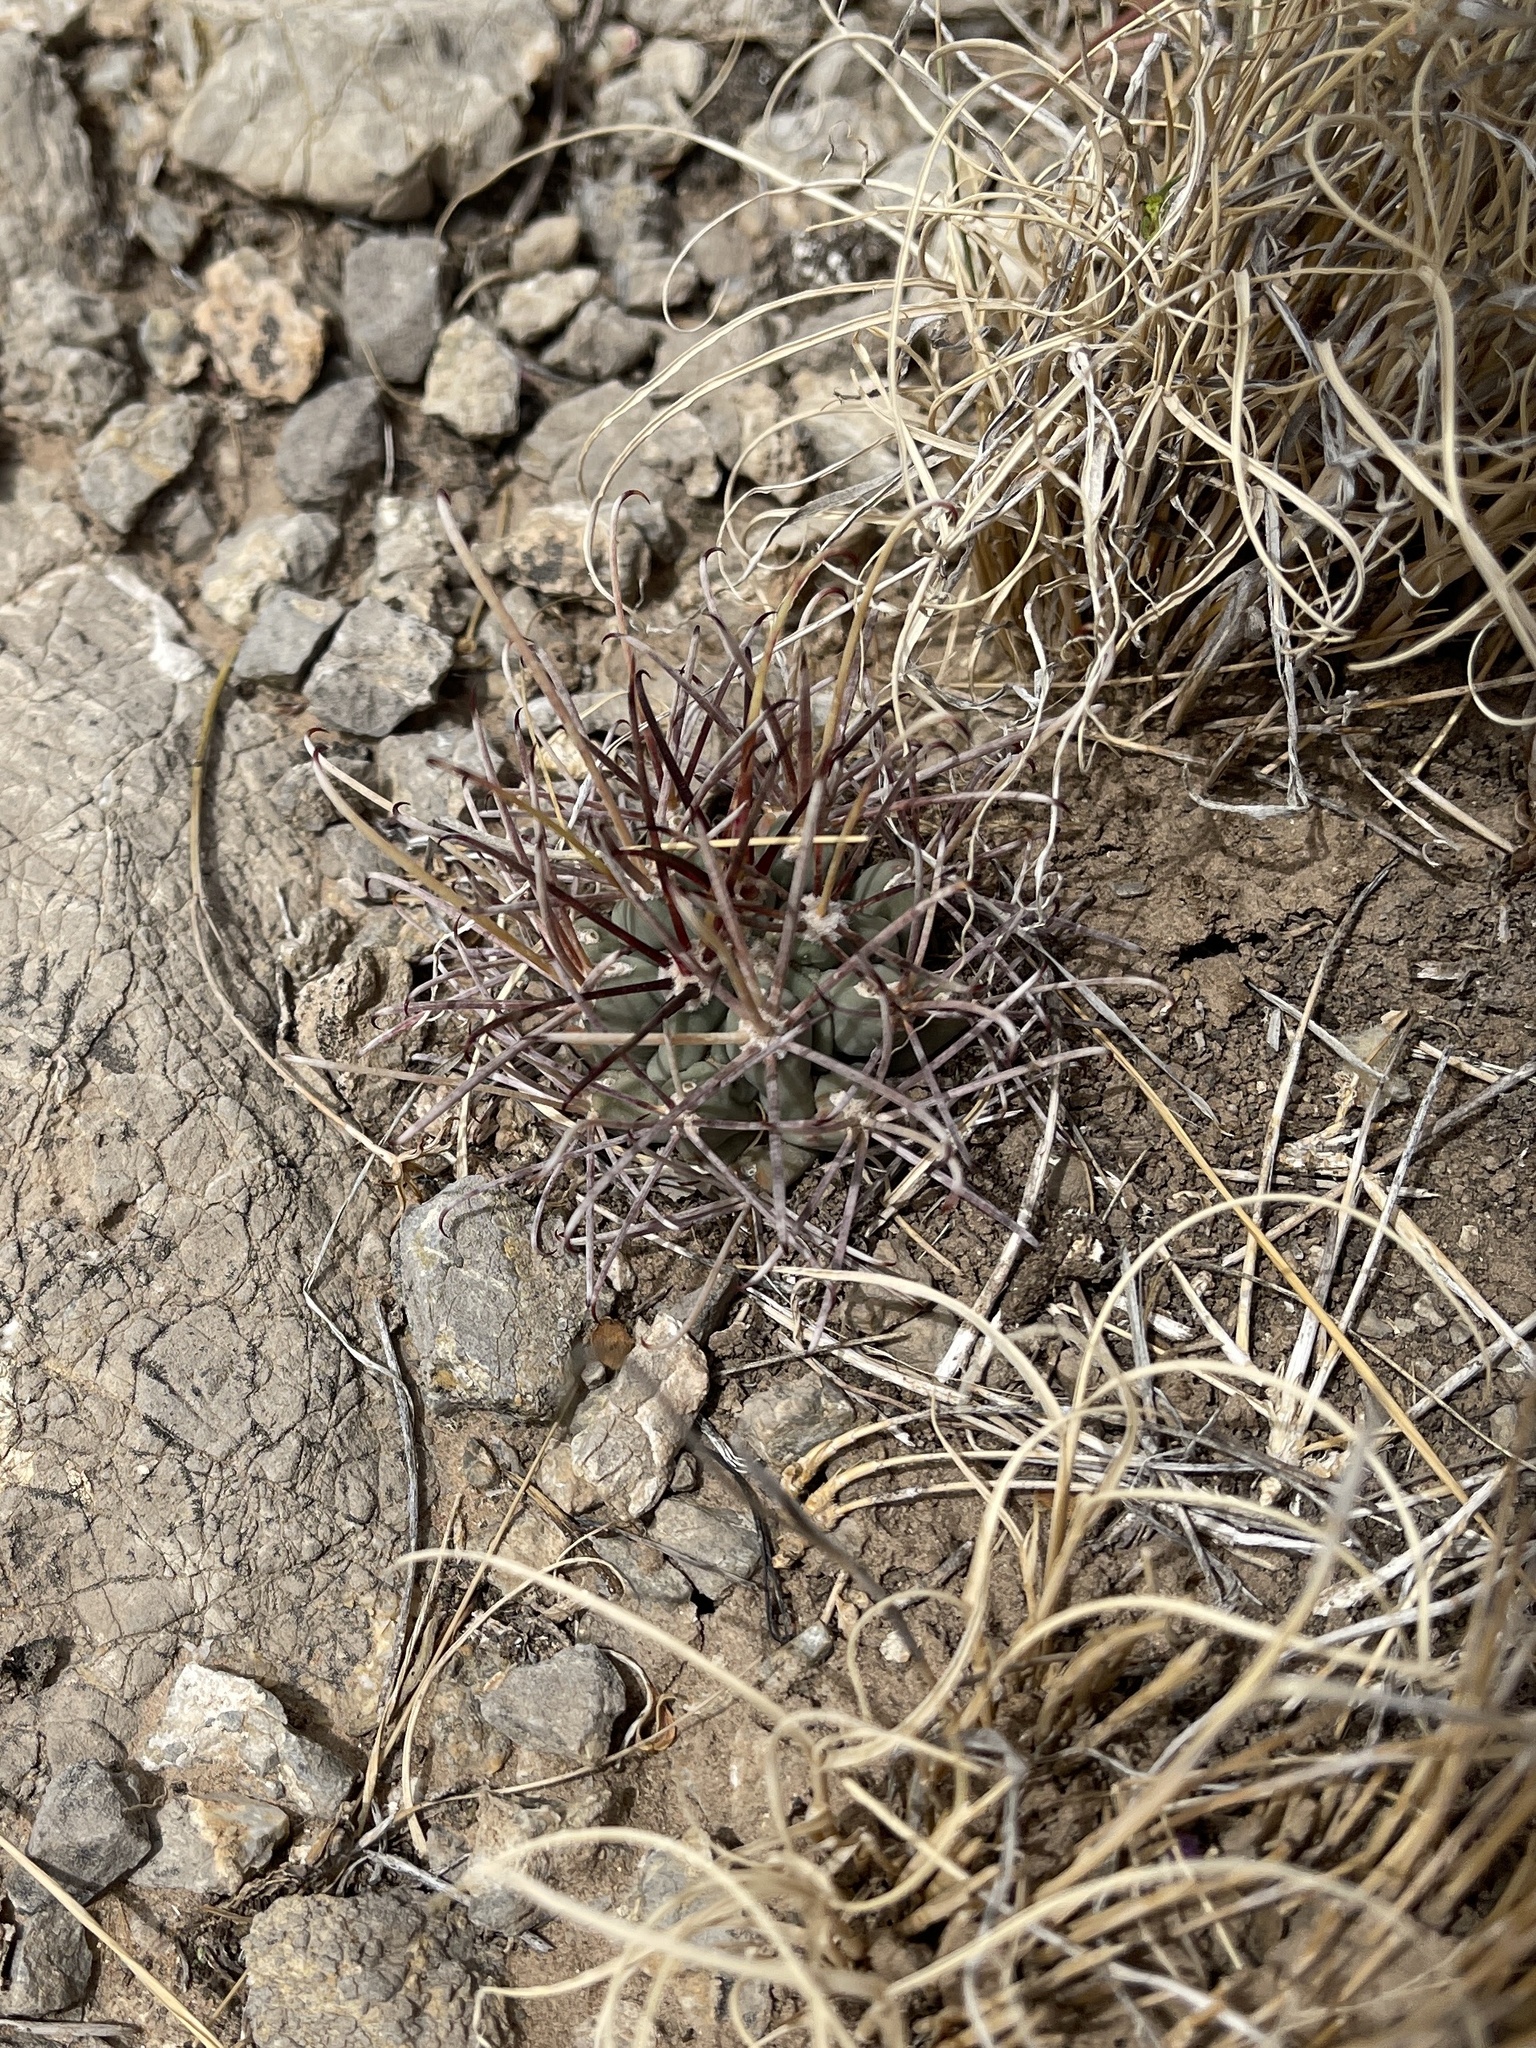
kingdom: Plantae
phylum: Tracheophyta
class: Magnoliopsida
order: Caryophyllales
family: Cactaceae
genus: Ferocactus
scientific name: Ferocactus uncinatus
